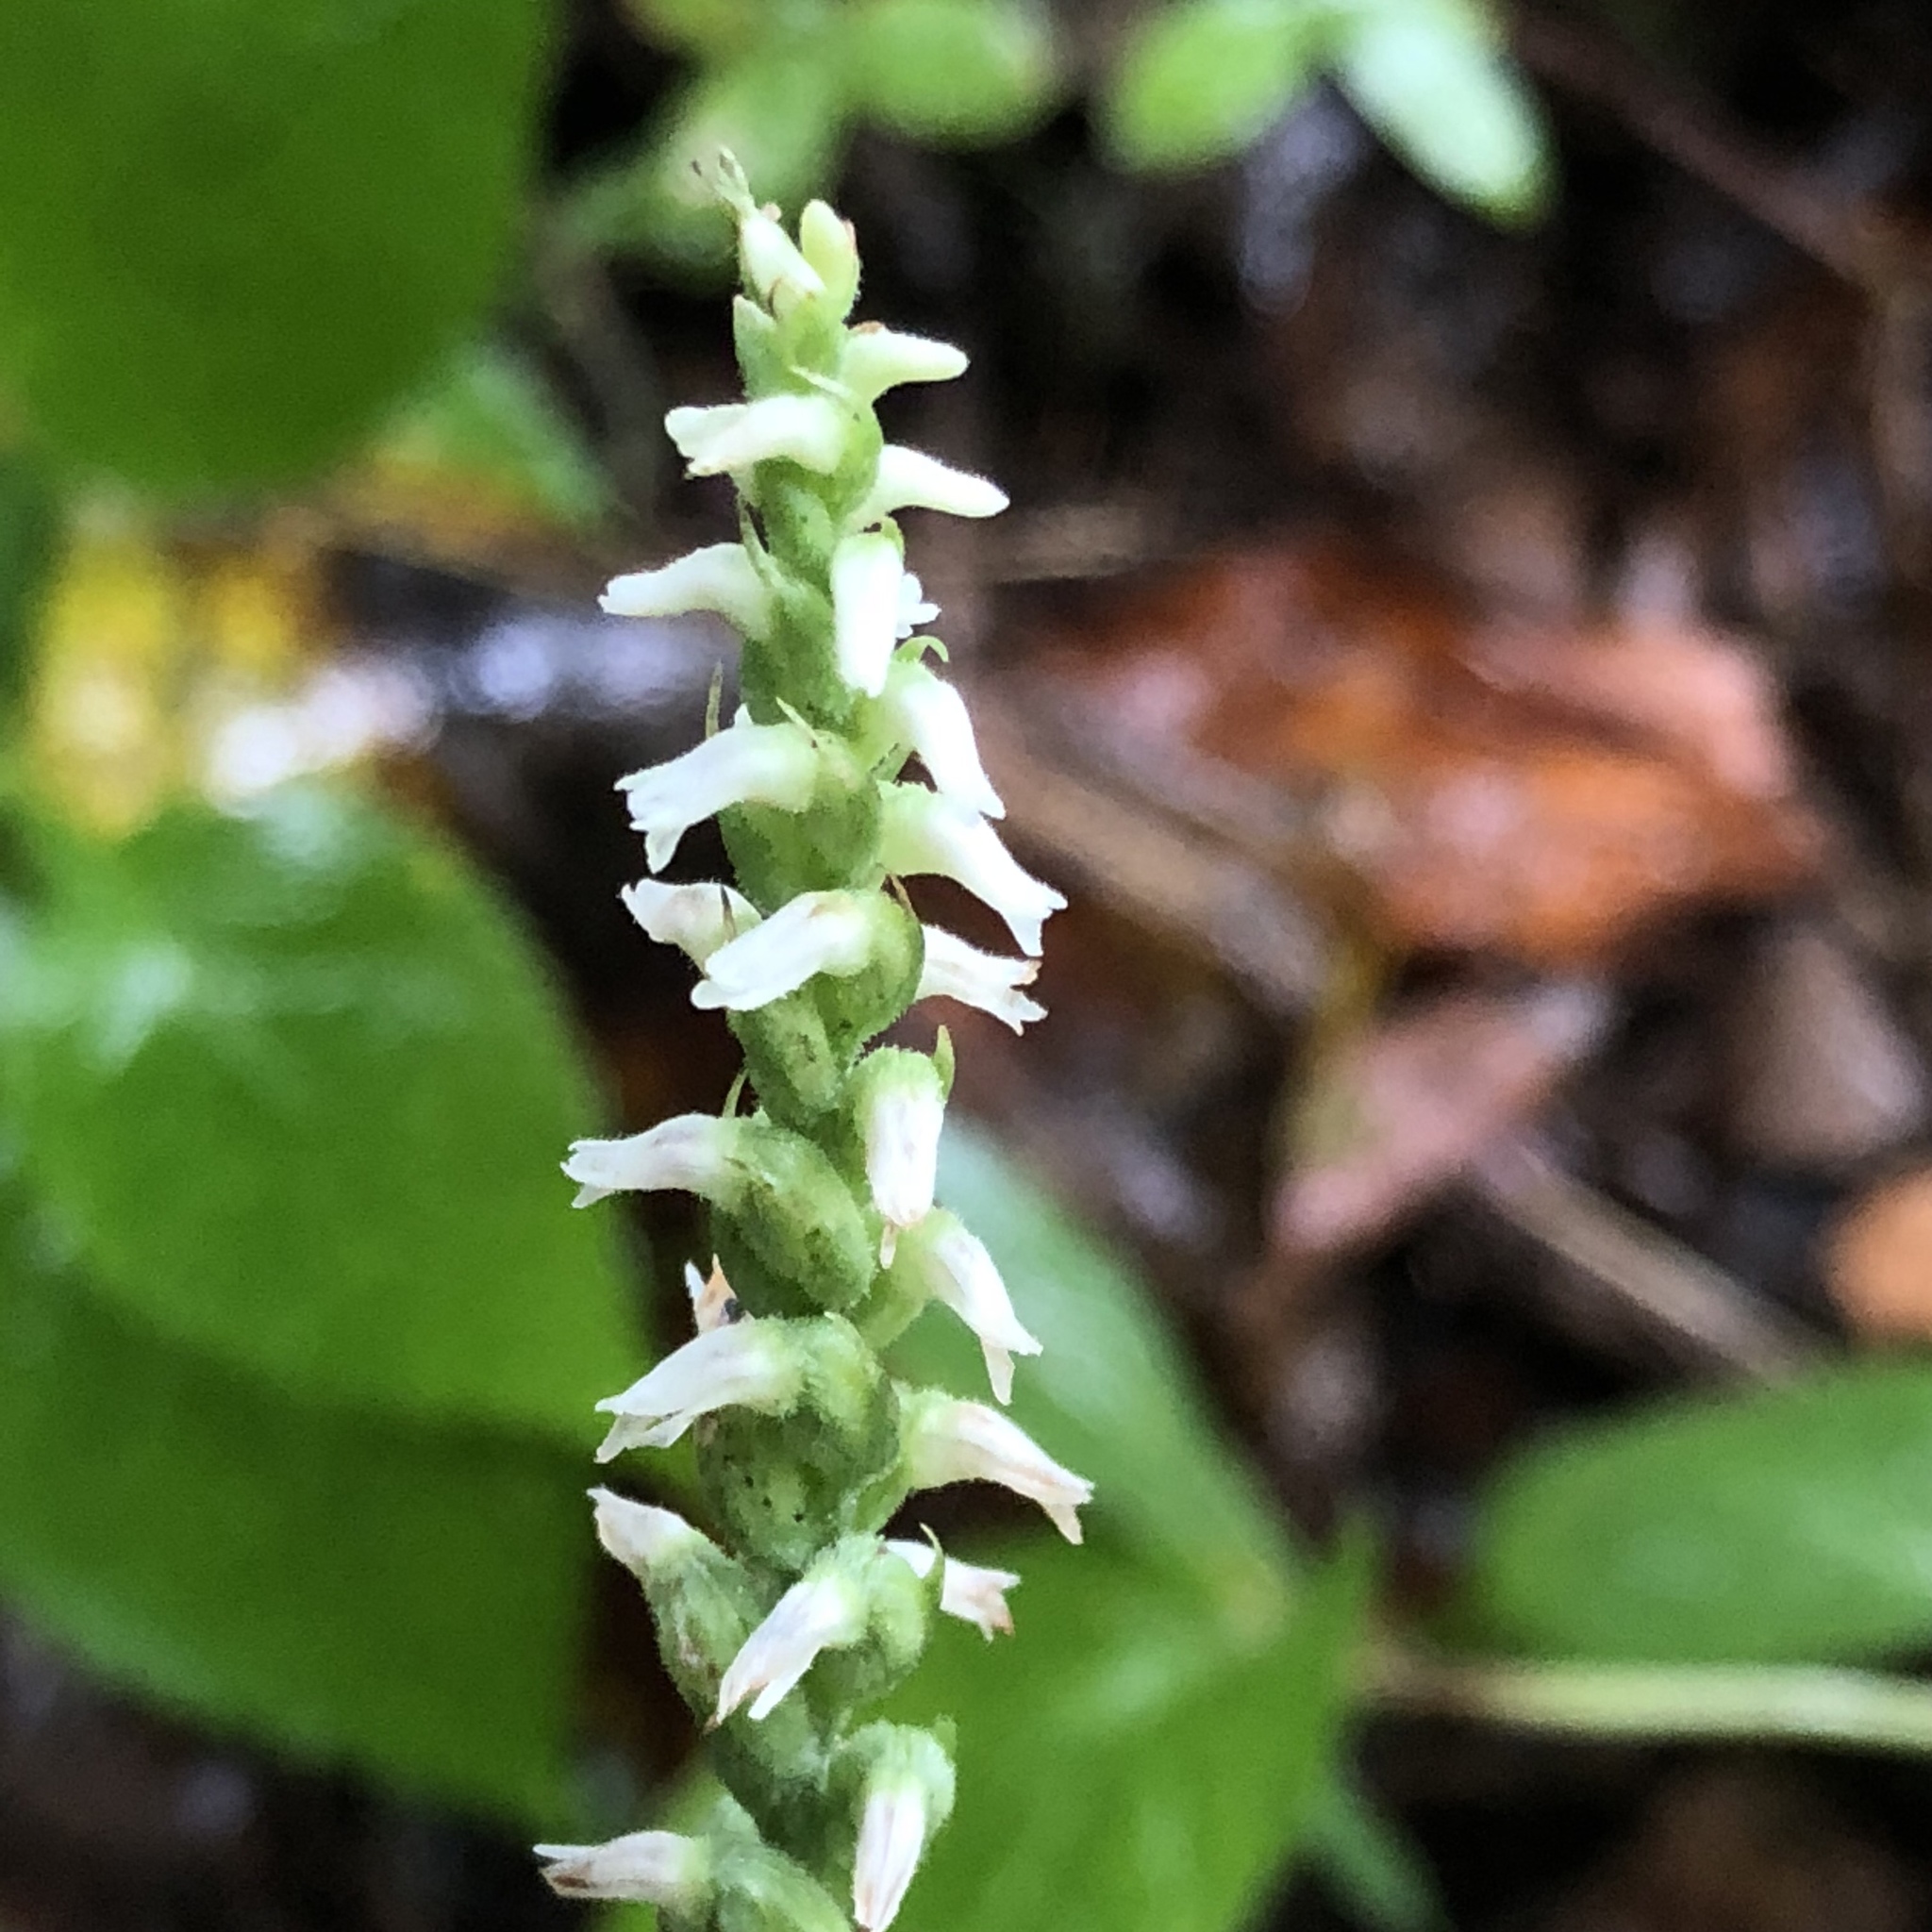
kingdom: Plantae
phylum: Tracheophyta
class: Liliopsida
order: Asparagales
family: Orchidaceae
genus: Spiranthes
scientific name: Spiranthes ovalis
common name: October ladies'-tresses
